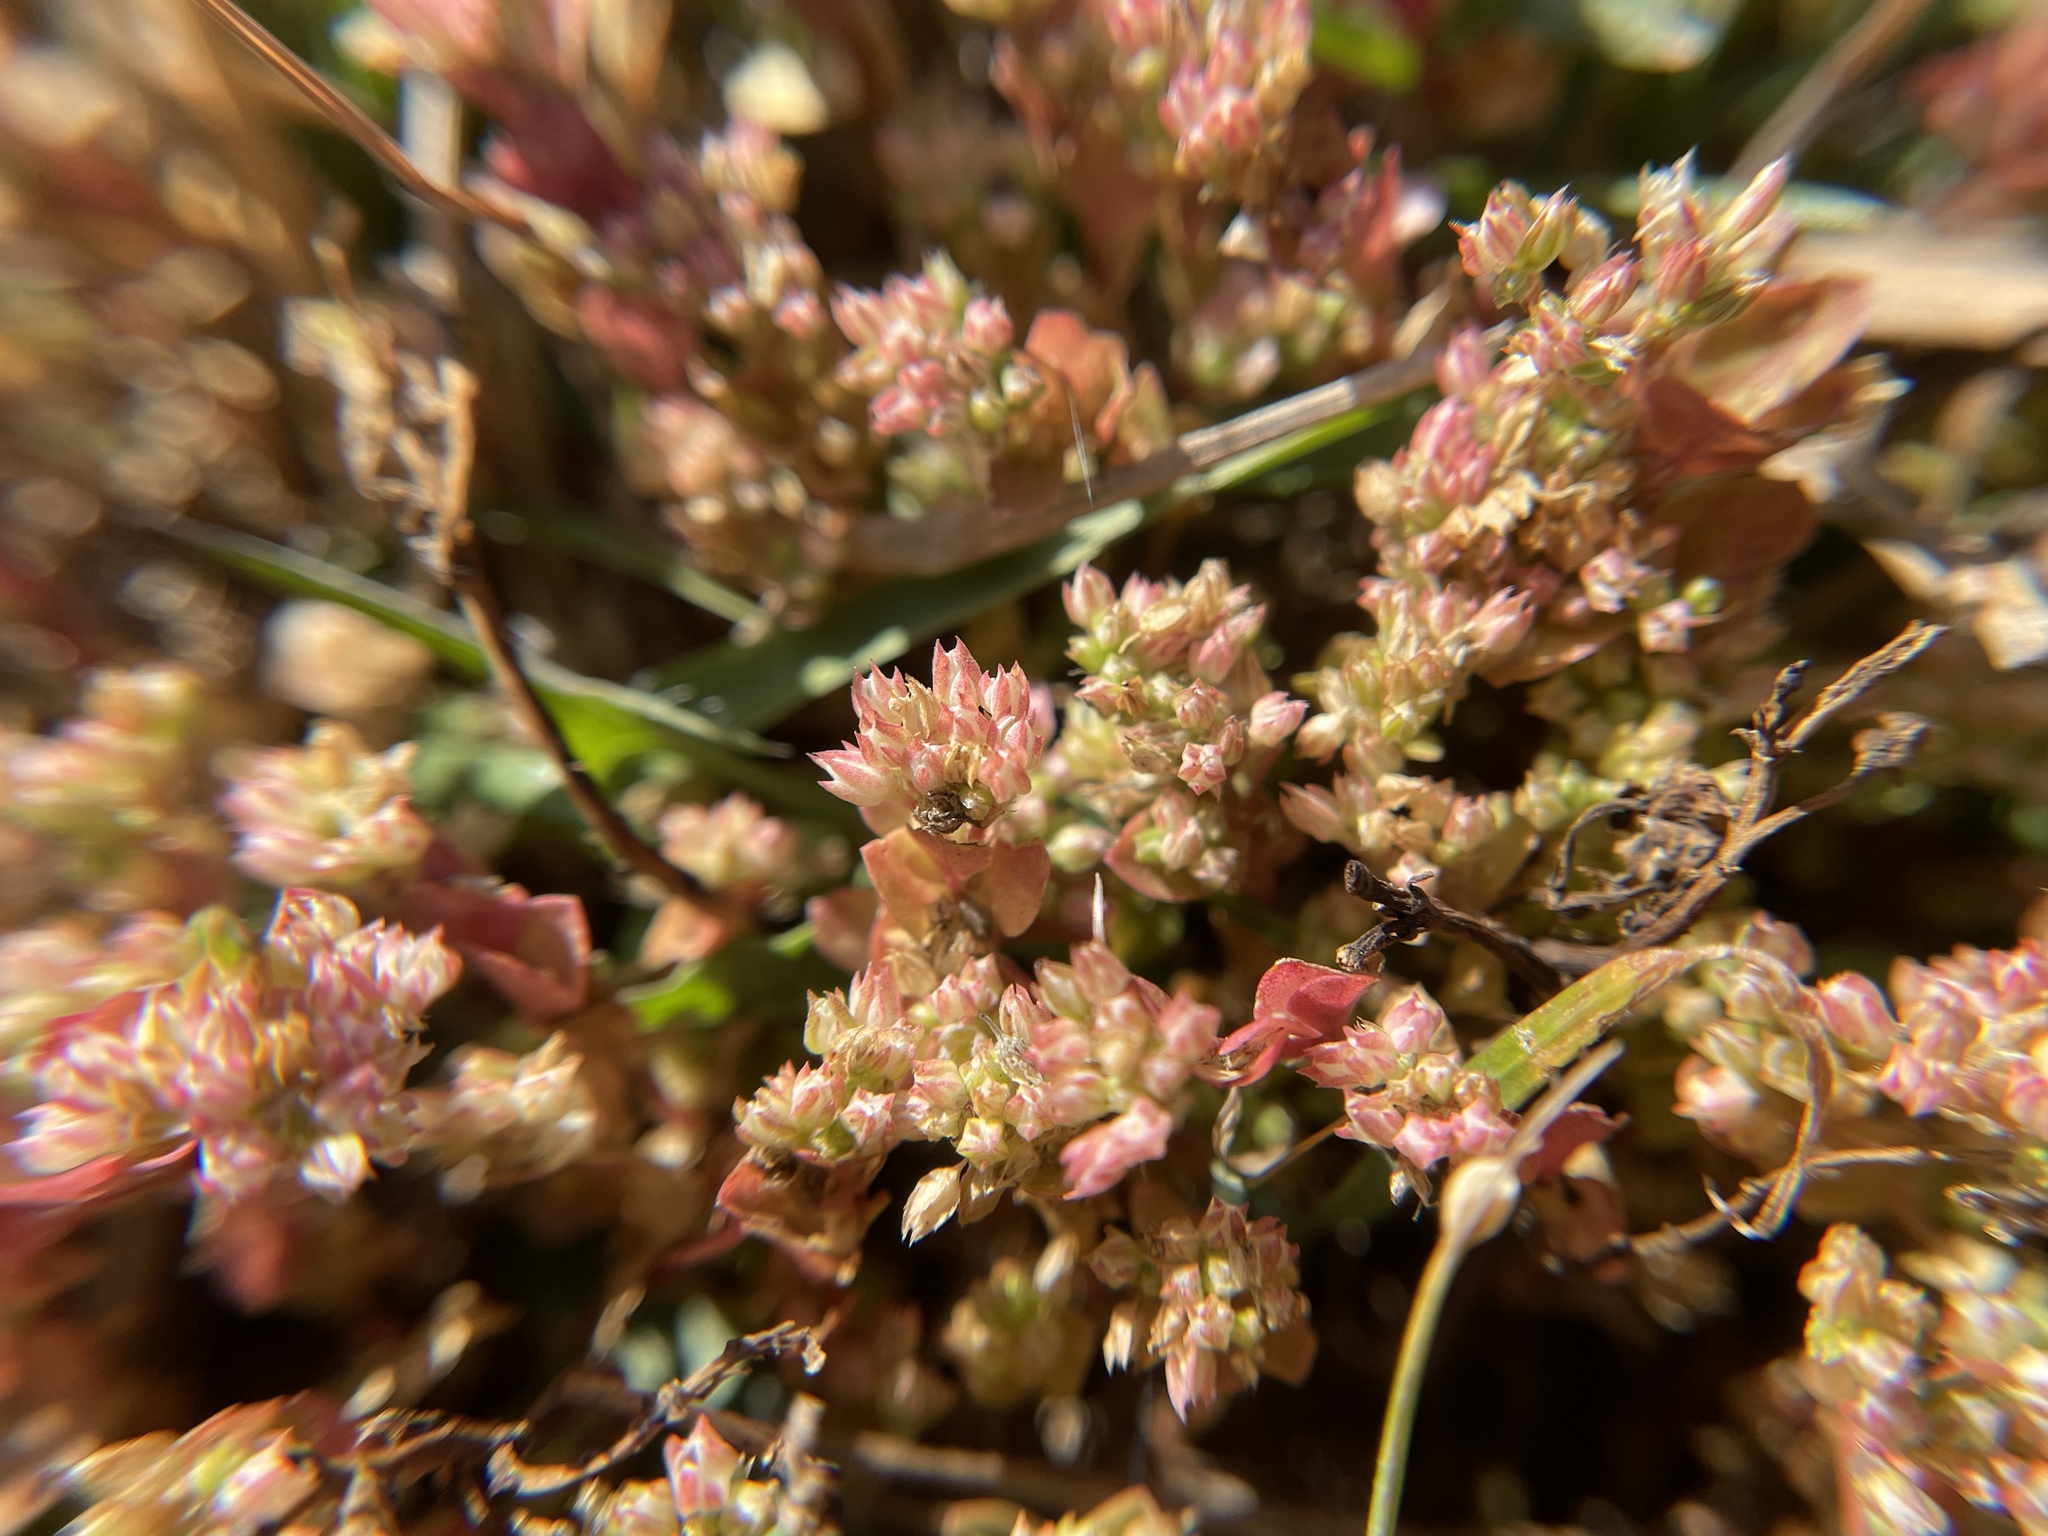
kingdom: Plantae
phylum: Tracheophyta
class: Magnoliopsida
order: Caryophyllales
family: Caryophyllaceae
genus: Polycarpon
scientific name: Polycarpon tetraphyllum
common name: Four-leaved all-seed
